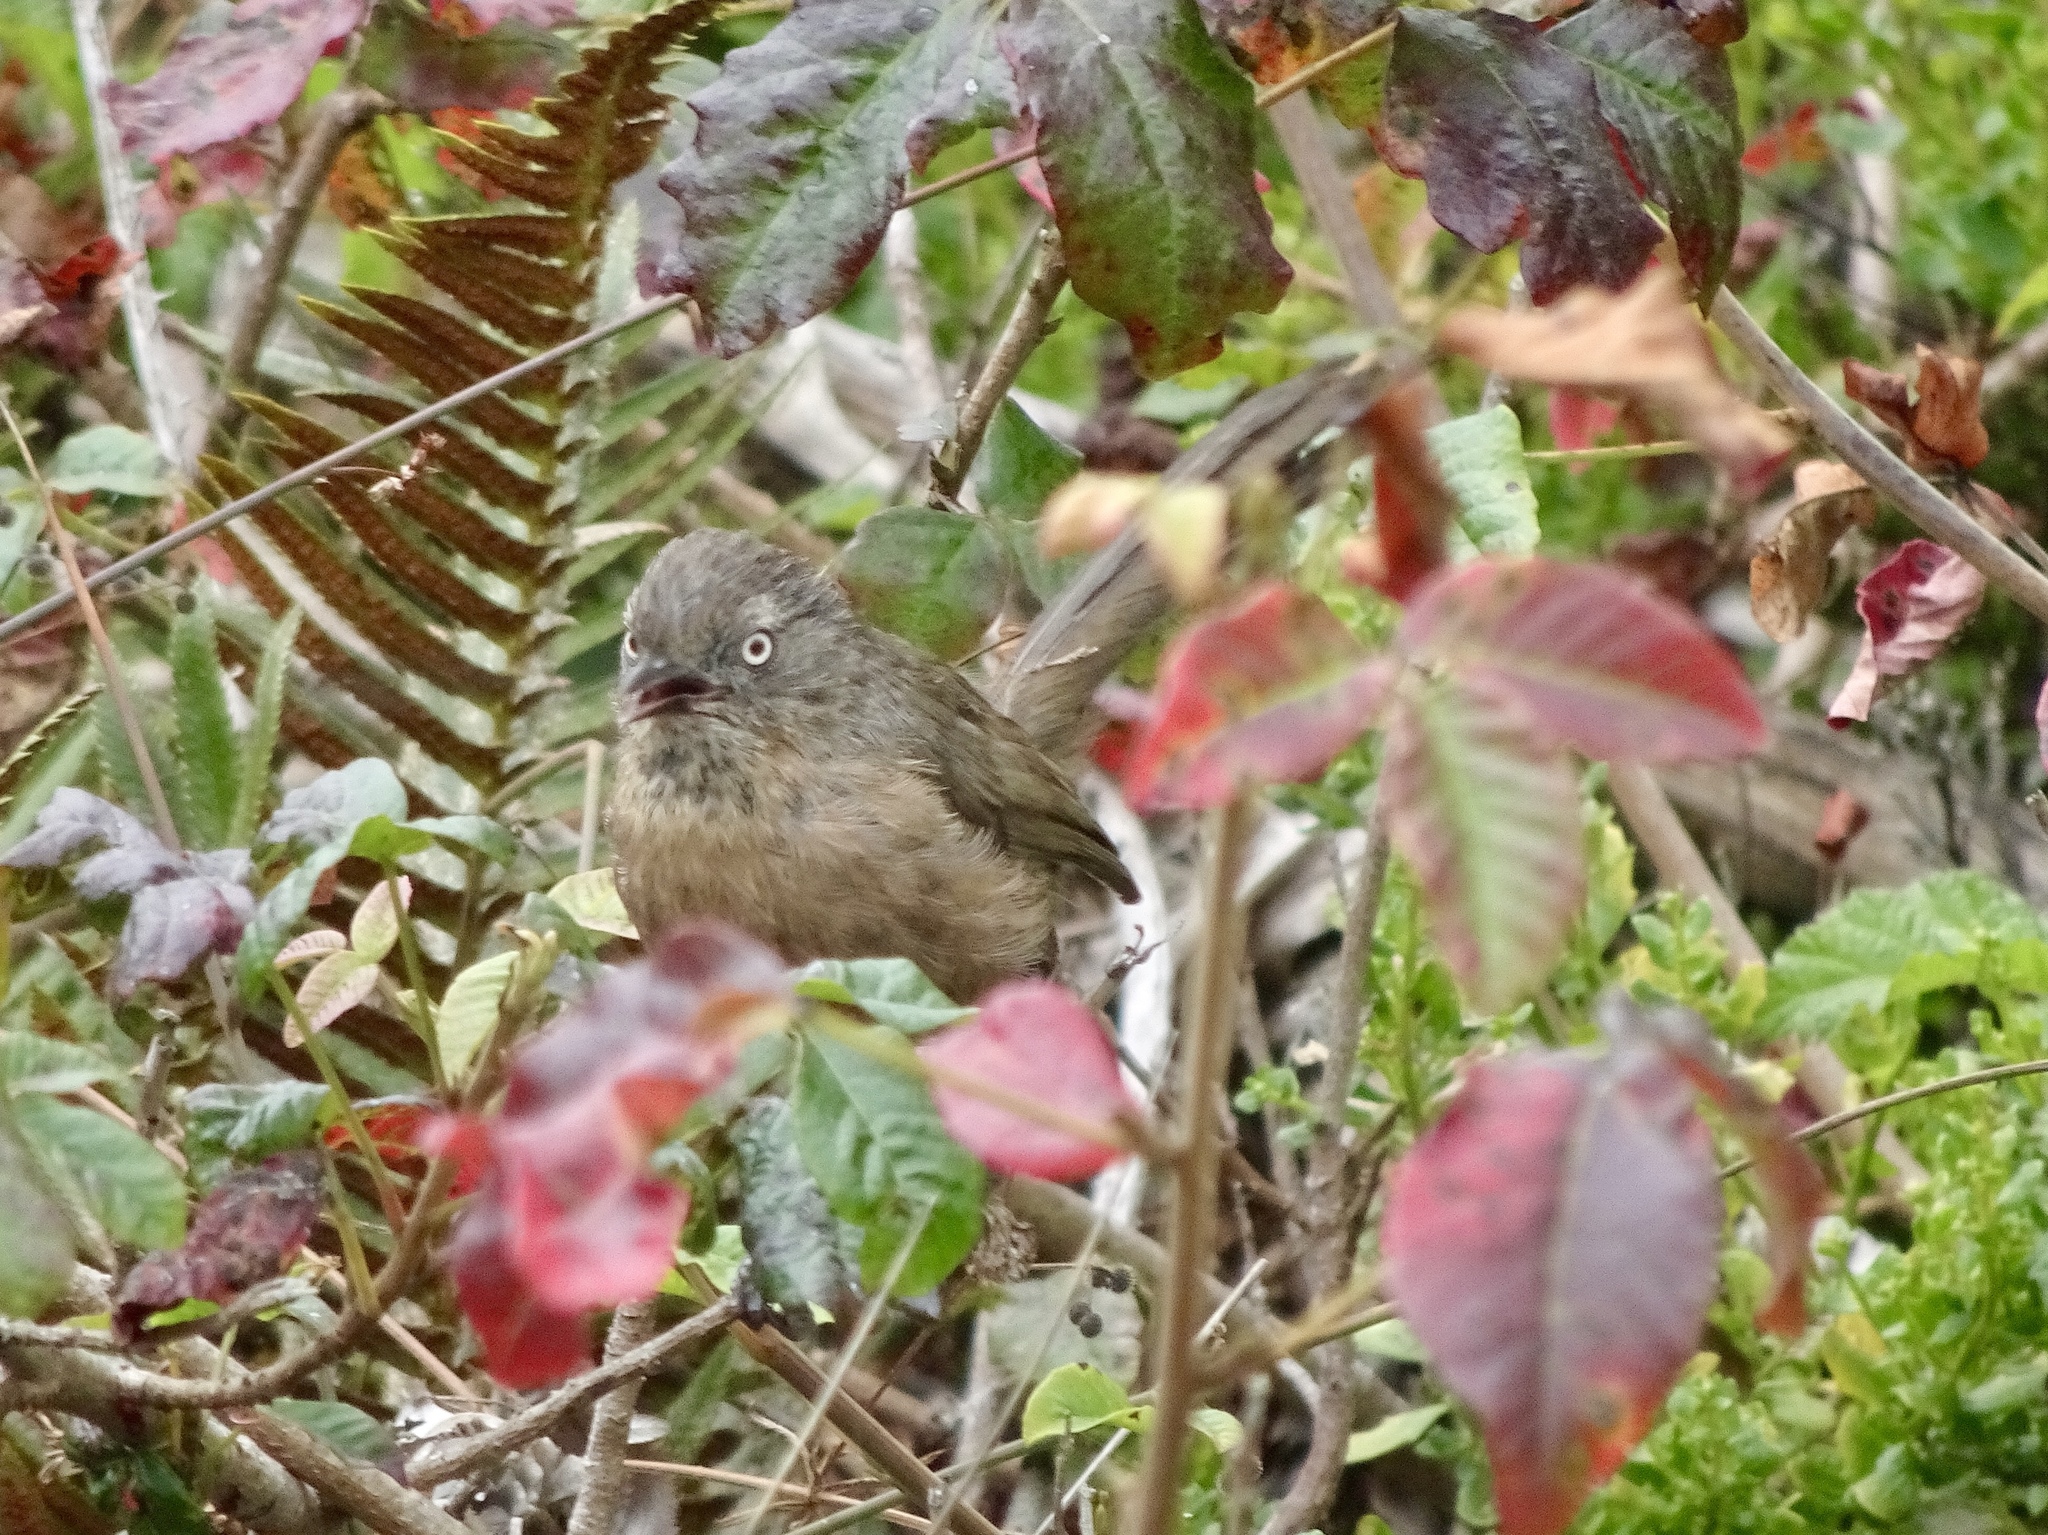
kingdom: Animalia
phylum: Chordata
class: Aves
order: Passeriformes
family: Sylviidae
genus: Chamaea
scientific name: Chamaea fasciata
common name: Wrentit
